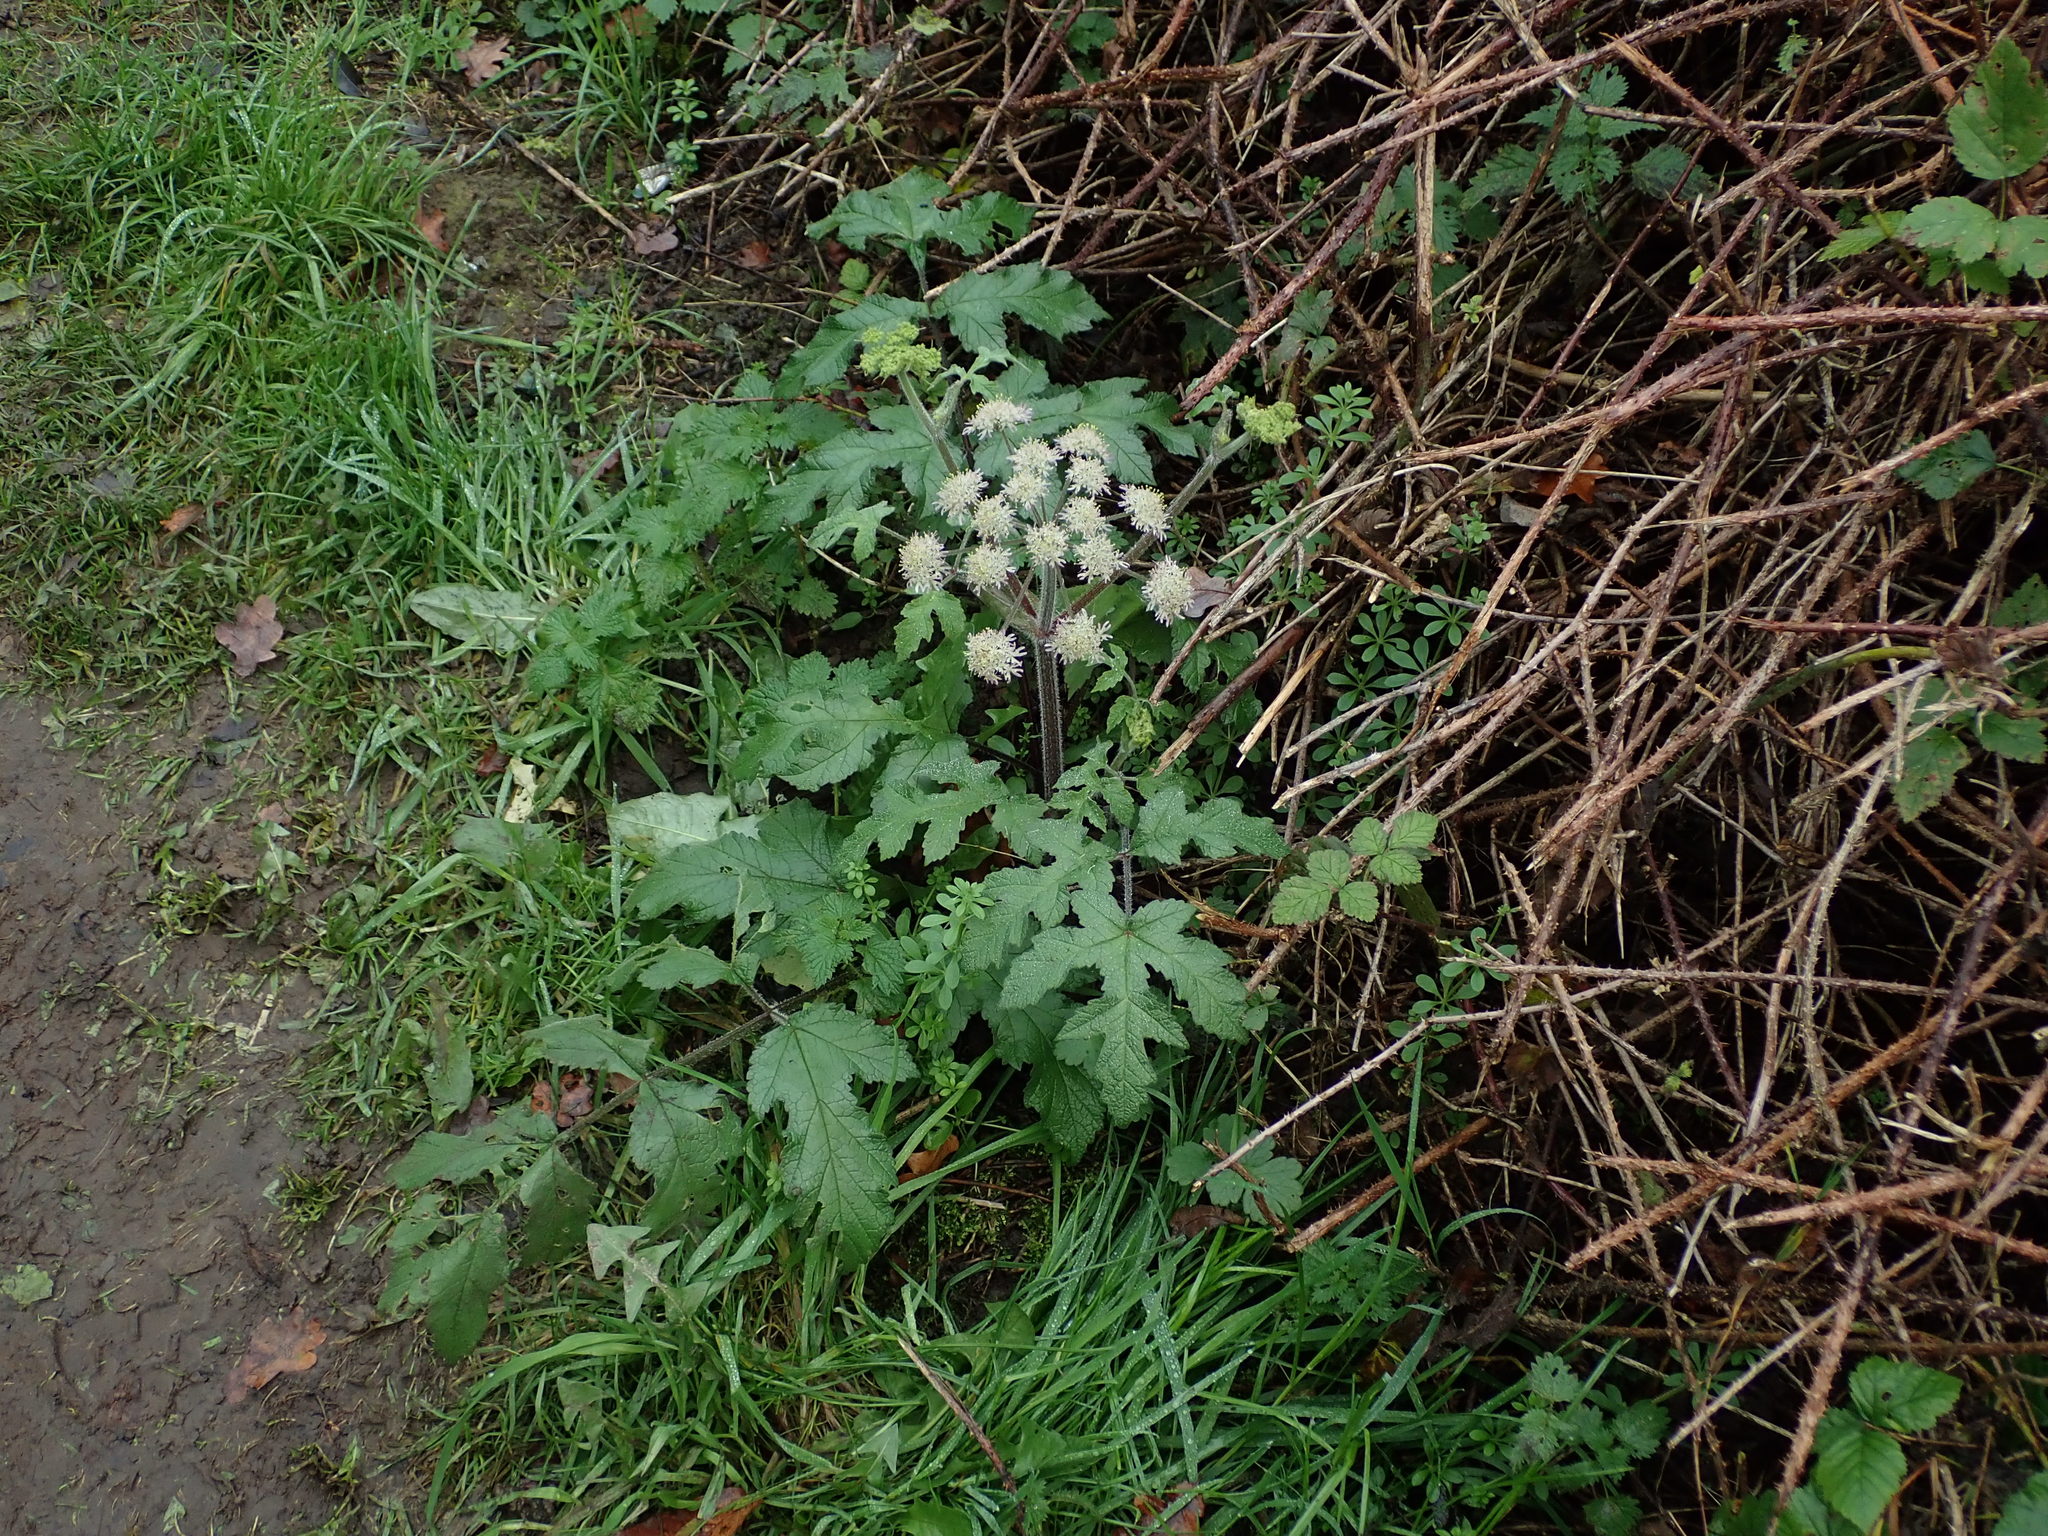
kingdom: Plantae
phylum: Tracheophyta
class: Magnoliopsida
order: Apiales
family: Apiaceae
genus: Heracleum
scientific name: Heracleum sphondylium
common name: Hogweed
